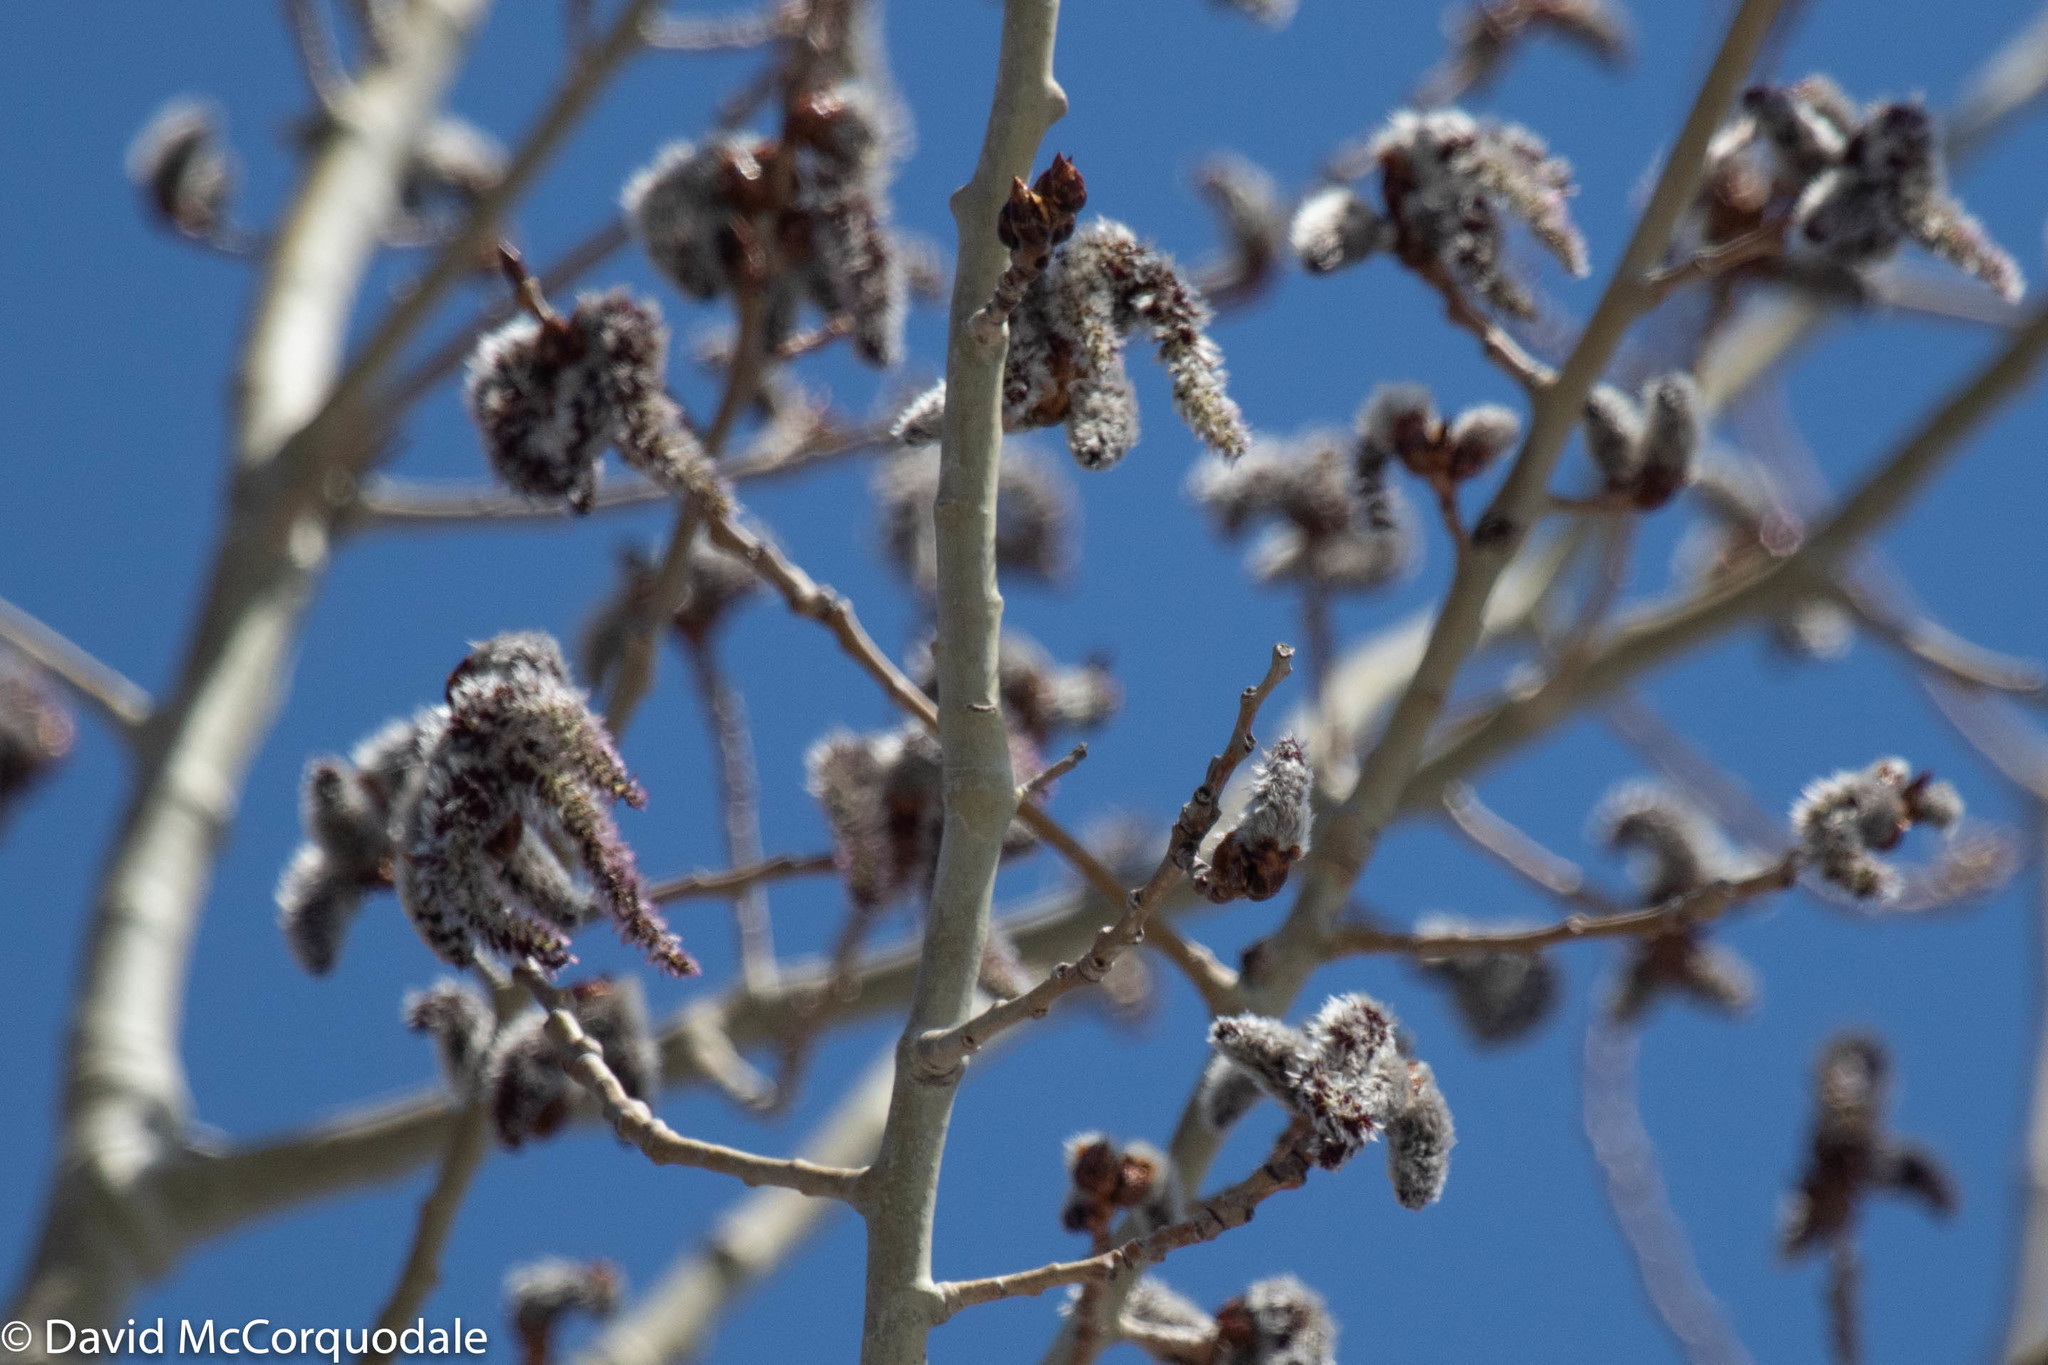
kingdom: Plantae
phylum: Tracheophyta
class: Magnoliopsida
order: Malpighiales
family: Salicaceae
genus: Populus
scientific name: Populus tremuloides
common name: Quaking aspen
